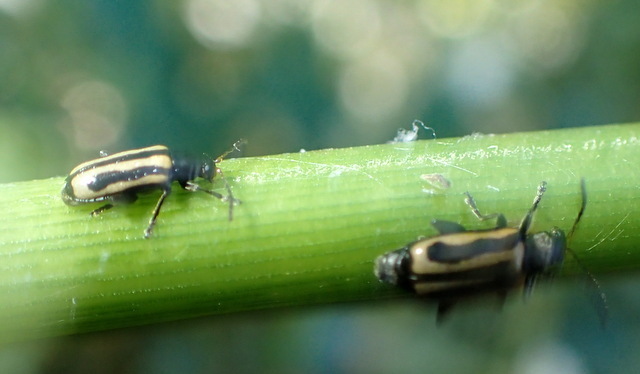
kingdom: Animalia
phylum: Arthropoda
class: Insecta
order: Coleoptera
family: Chrysomelidae
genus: Agasicles
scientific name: Agasicles hygrophila
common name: Alligatorweed flea beetle
